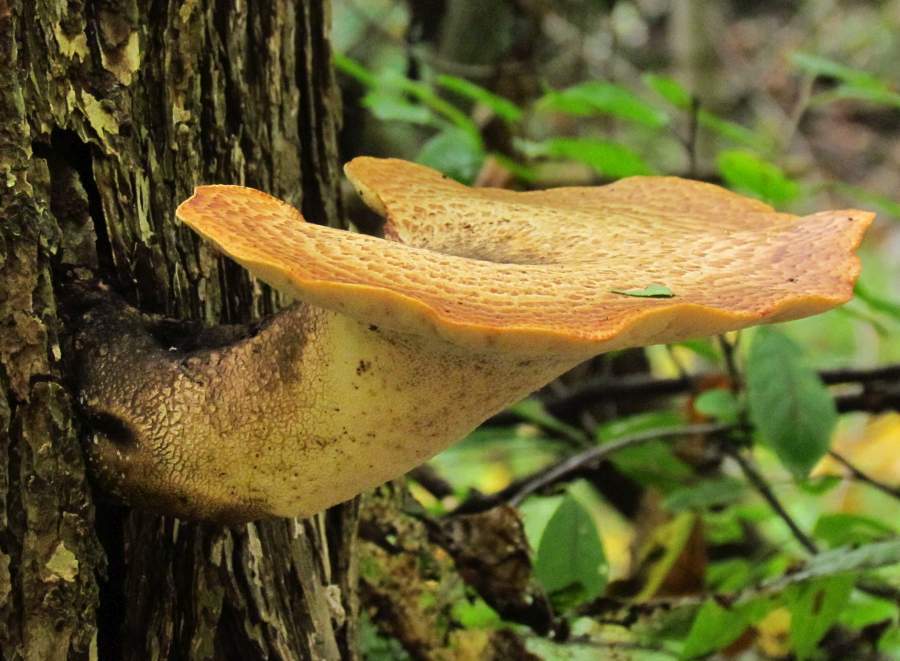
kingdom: Fungi
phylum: Basidiomycota
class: Agaricomycetes
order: Polyporales
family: Polyporaceae
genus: Cerioporus
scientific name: Cerioporus squamosus
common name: Dryad's saddle
